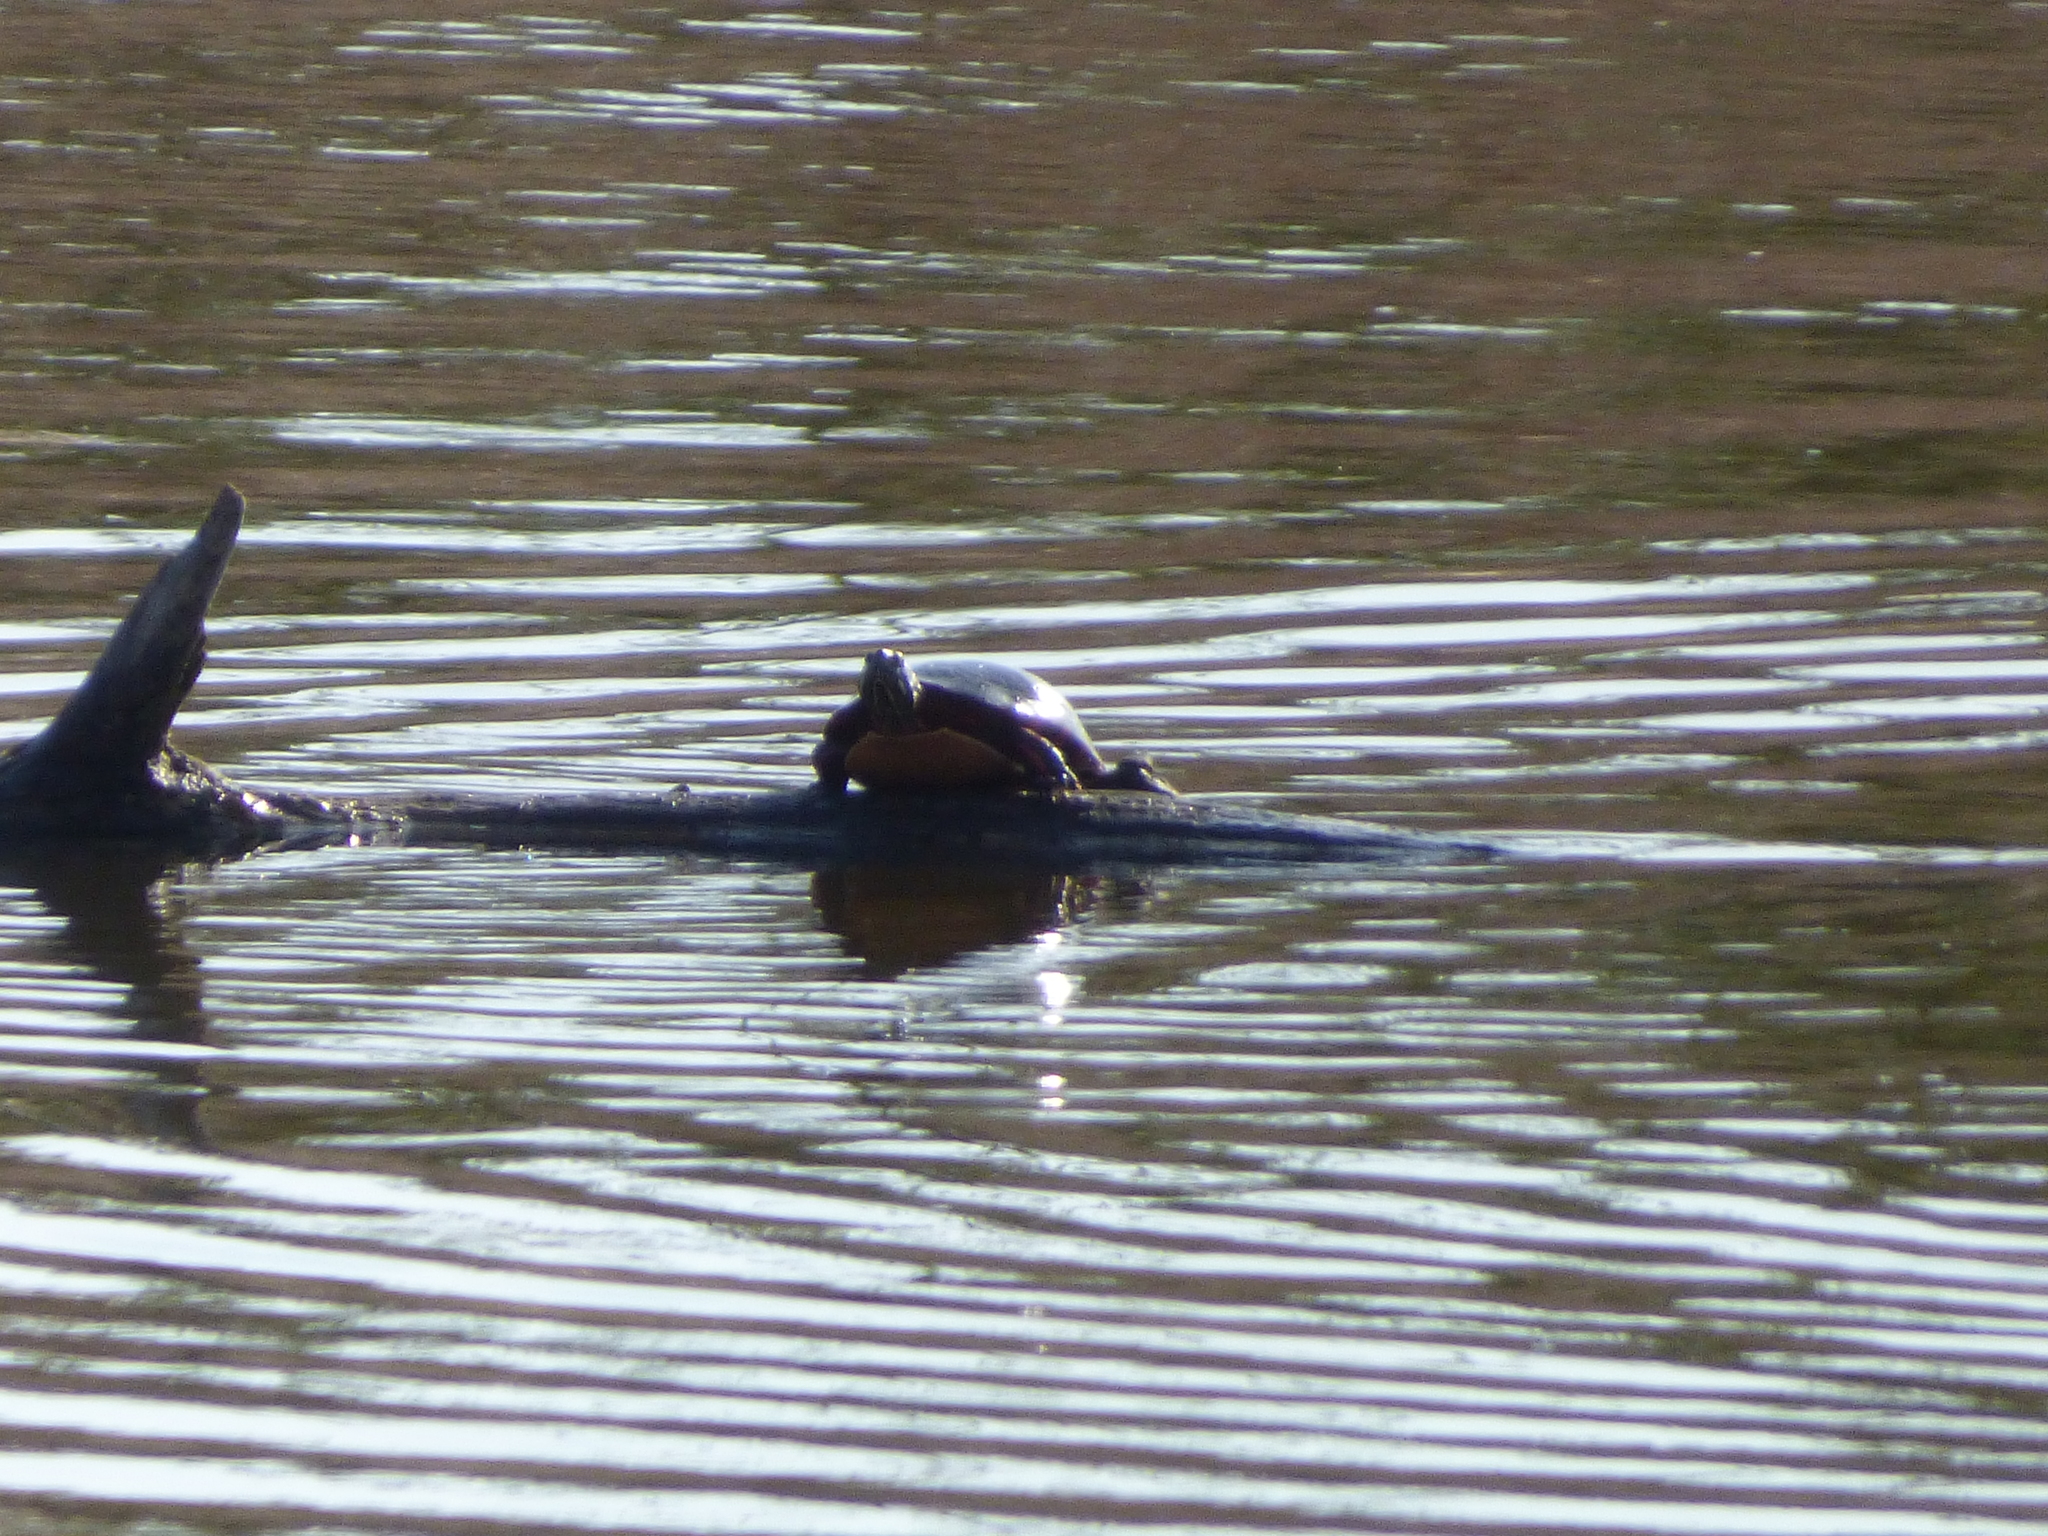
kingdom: Animalia
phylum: Chordata
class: Testudines
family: Emydidae
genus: Chrysemys
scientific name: Chrysemys picta
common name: Painted turtle
